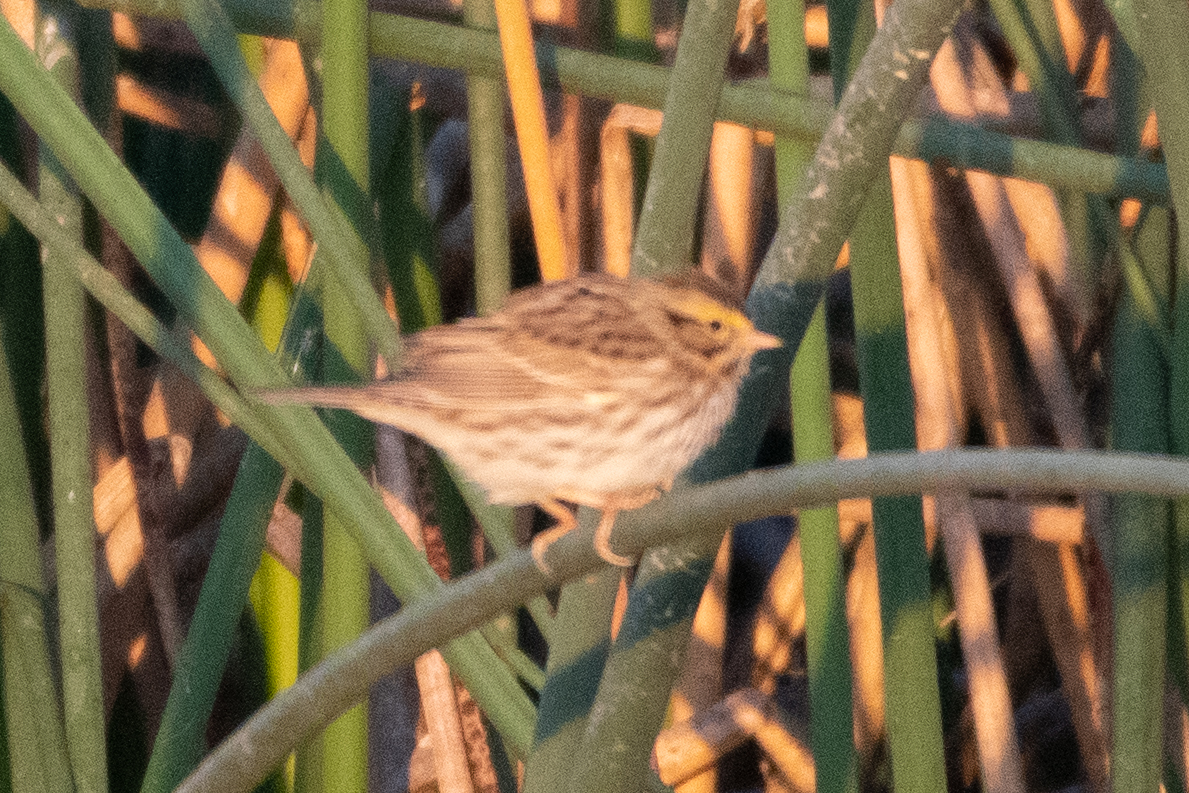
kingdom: Animalia
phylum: Chordata
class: Aves
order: Passeriformes
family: Passerellidae
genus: Passerculus
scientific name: Passerculus sandwichensis
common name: Savannah sparrow
